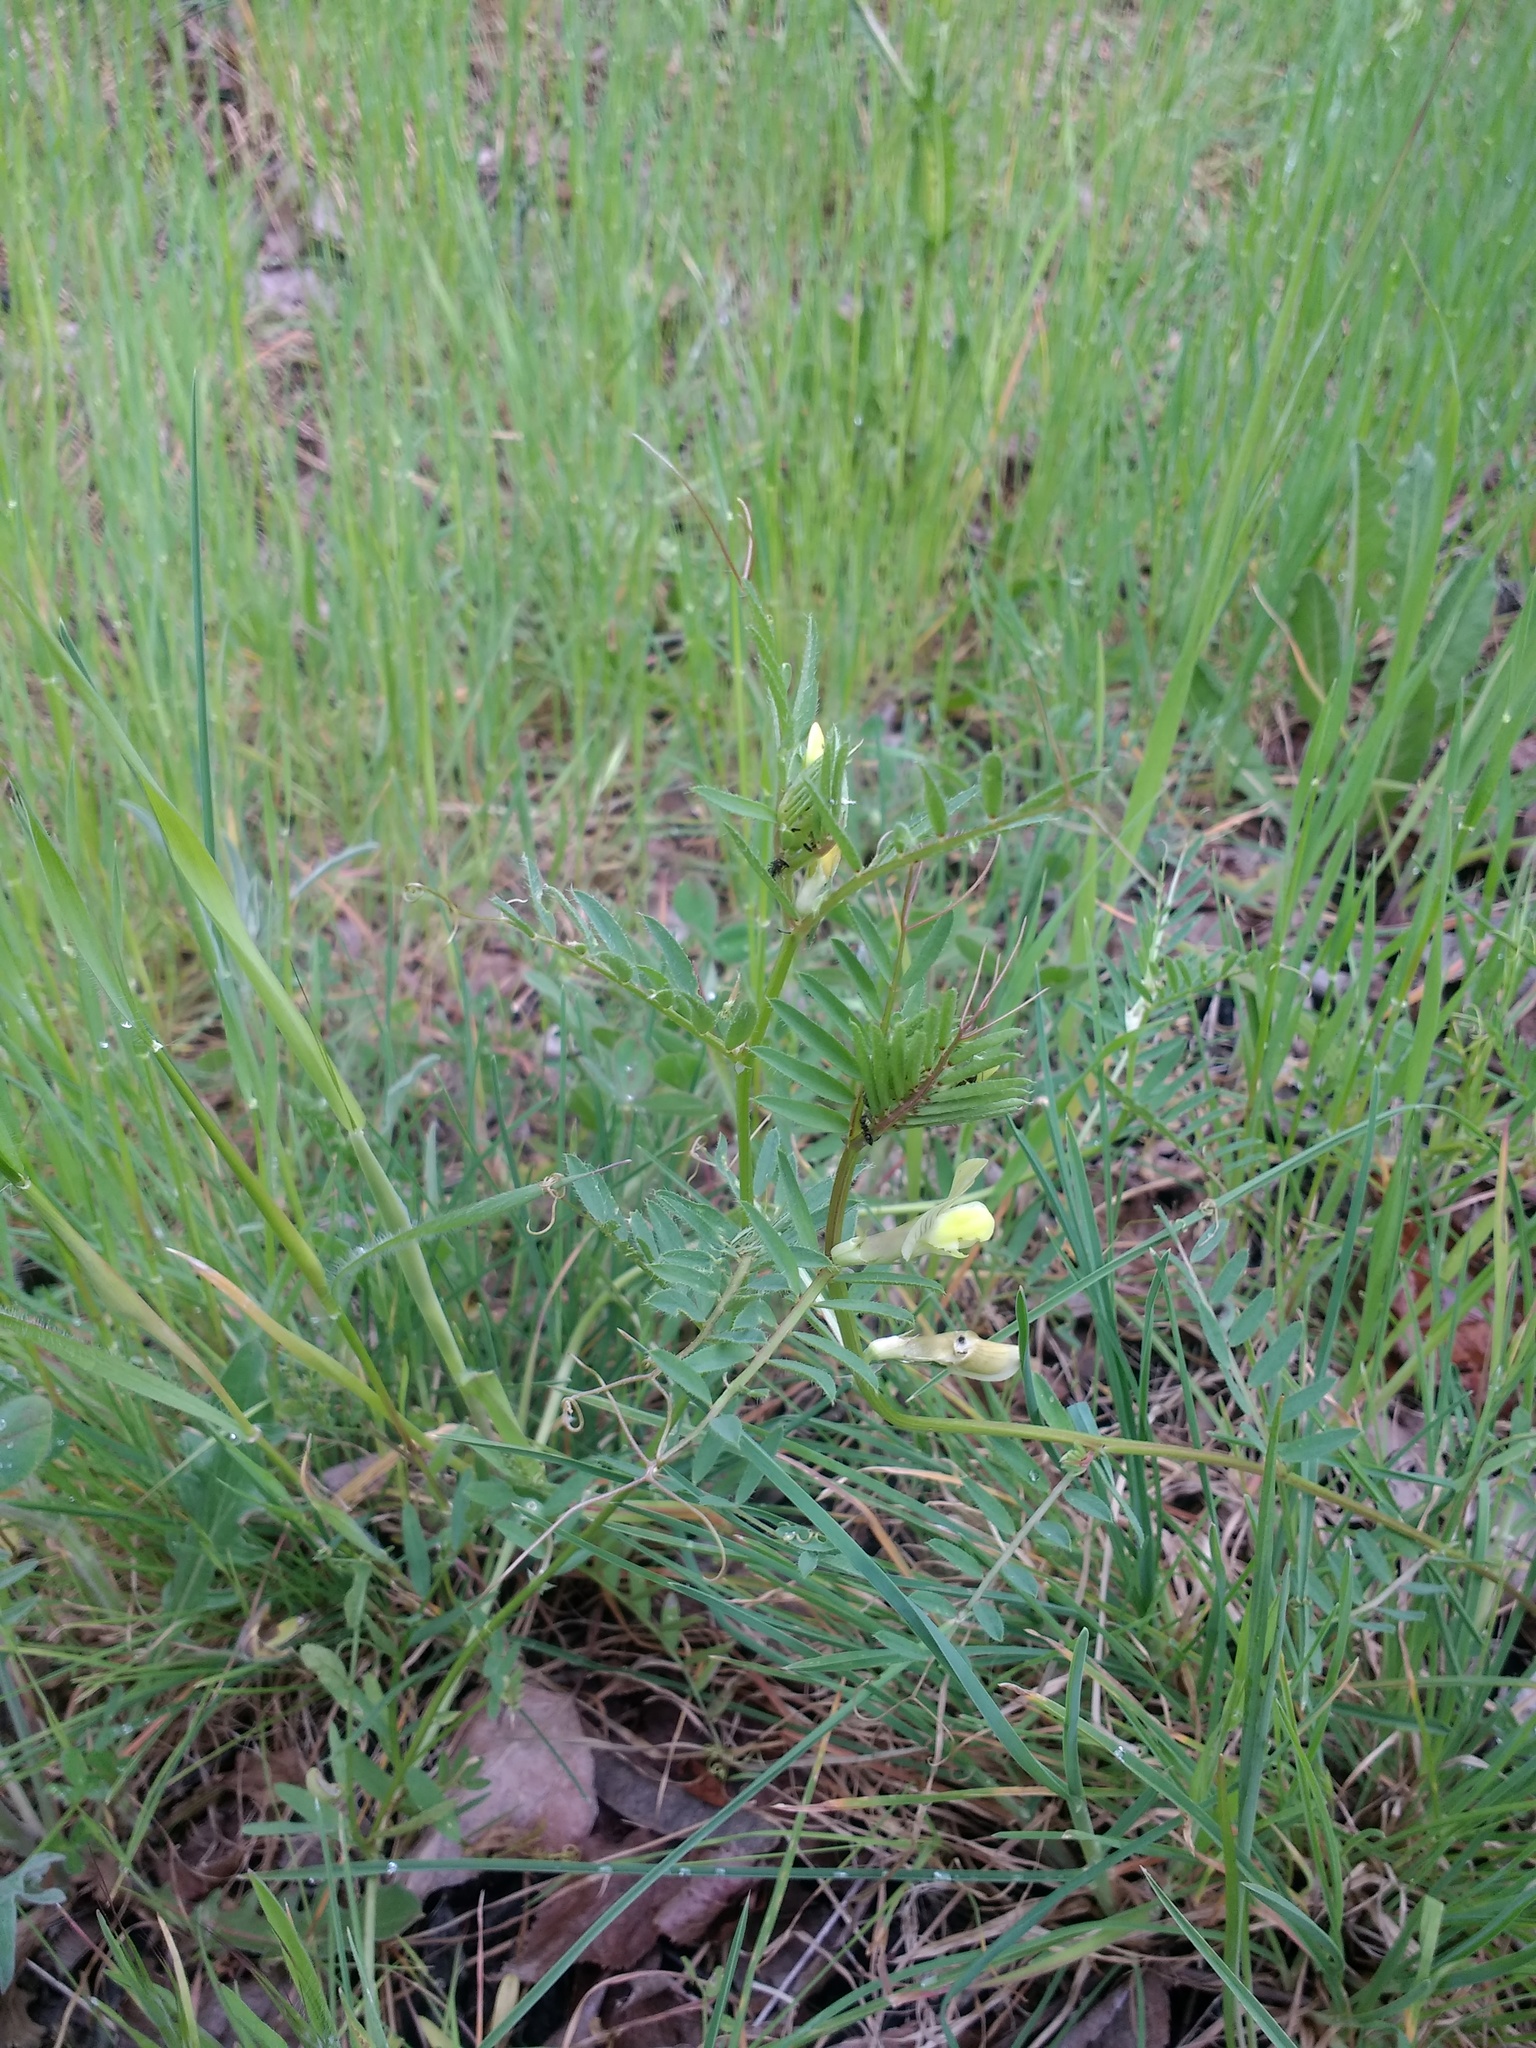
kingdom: Plantae
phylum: Tracheophyta
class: Magnoliopsida
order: Fabales
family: Fabaceae
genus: Vicia
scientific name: Vicia lutea
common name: Smooth yellow vetch
